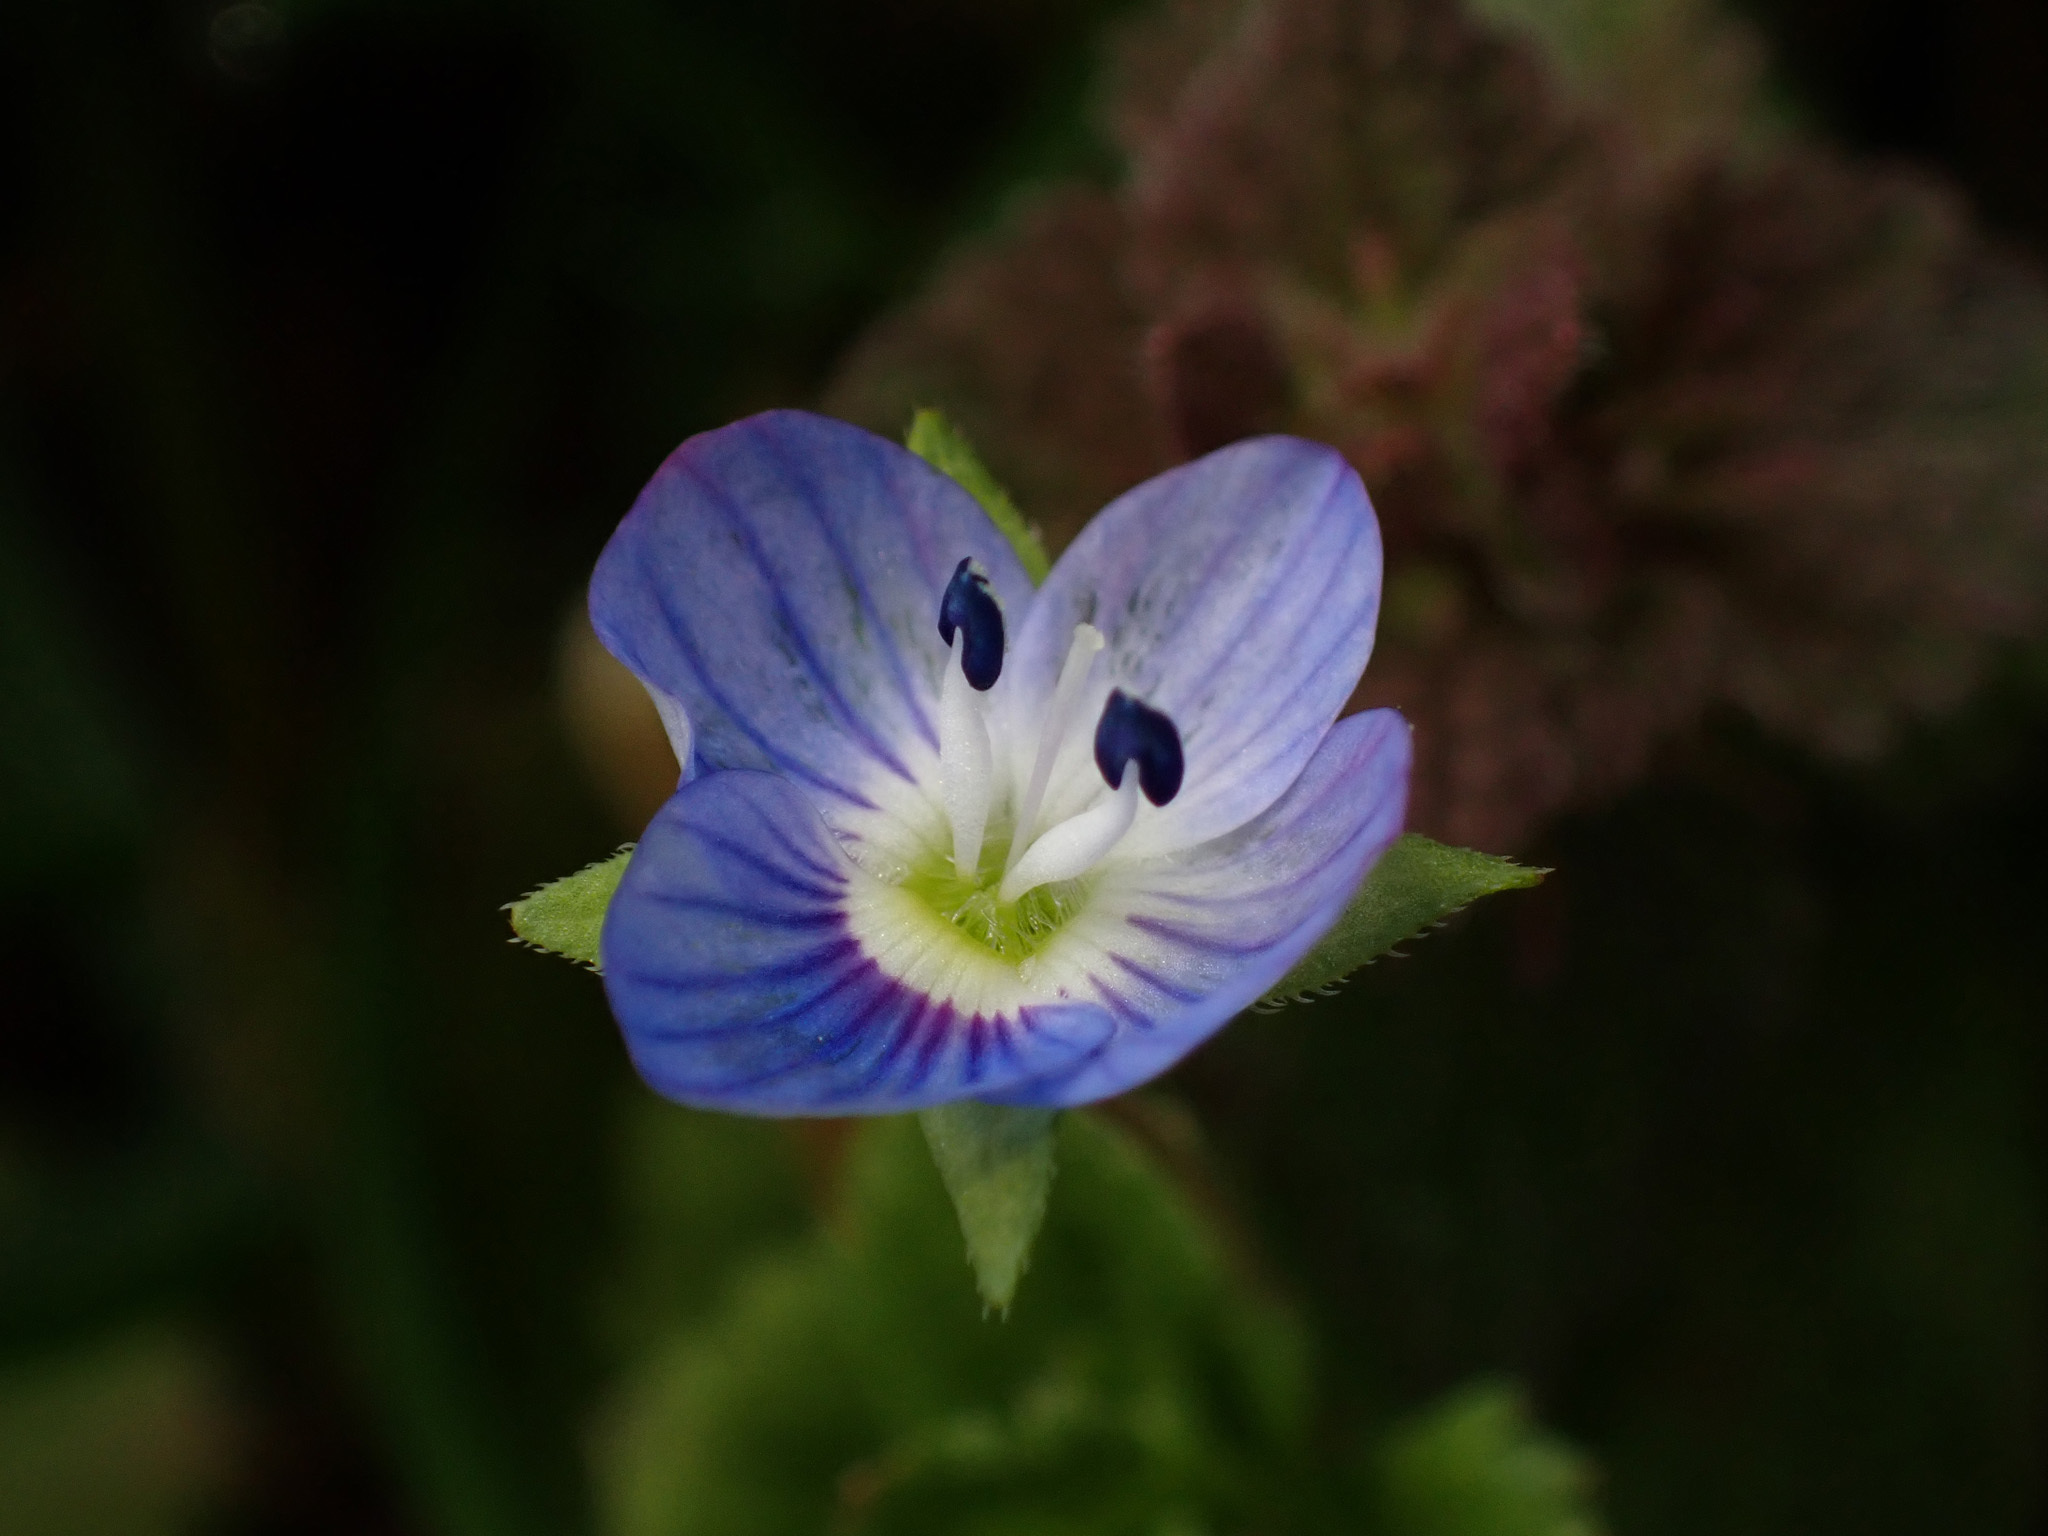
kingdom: Plantae
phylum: Tracheophyta
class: Magnoliopsida
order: Lamiales
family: Plantaginaceae
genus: Veronica
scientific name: Veronica persica
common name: Common field-speedwell
